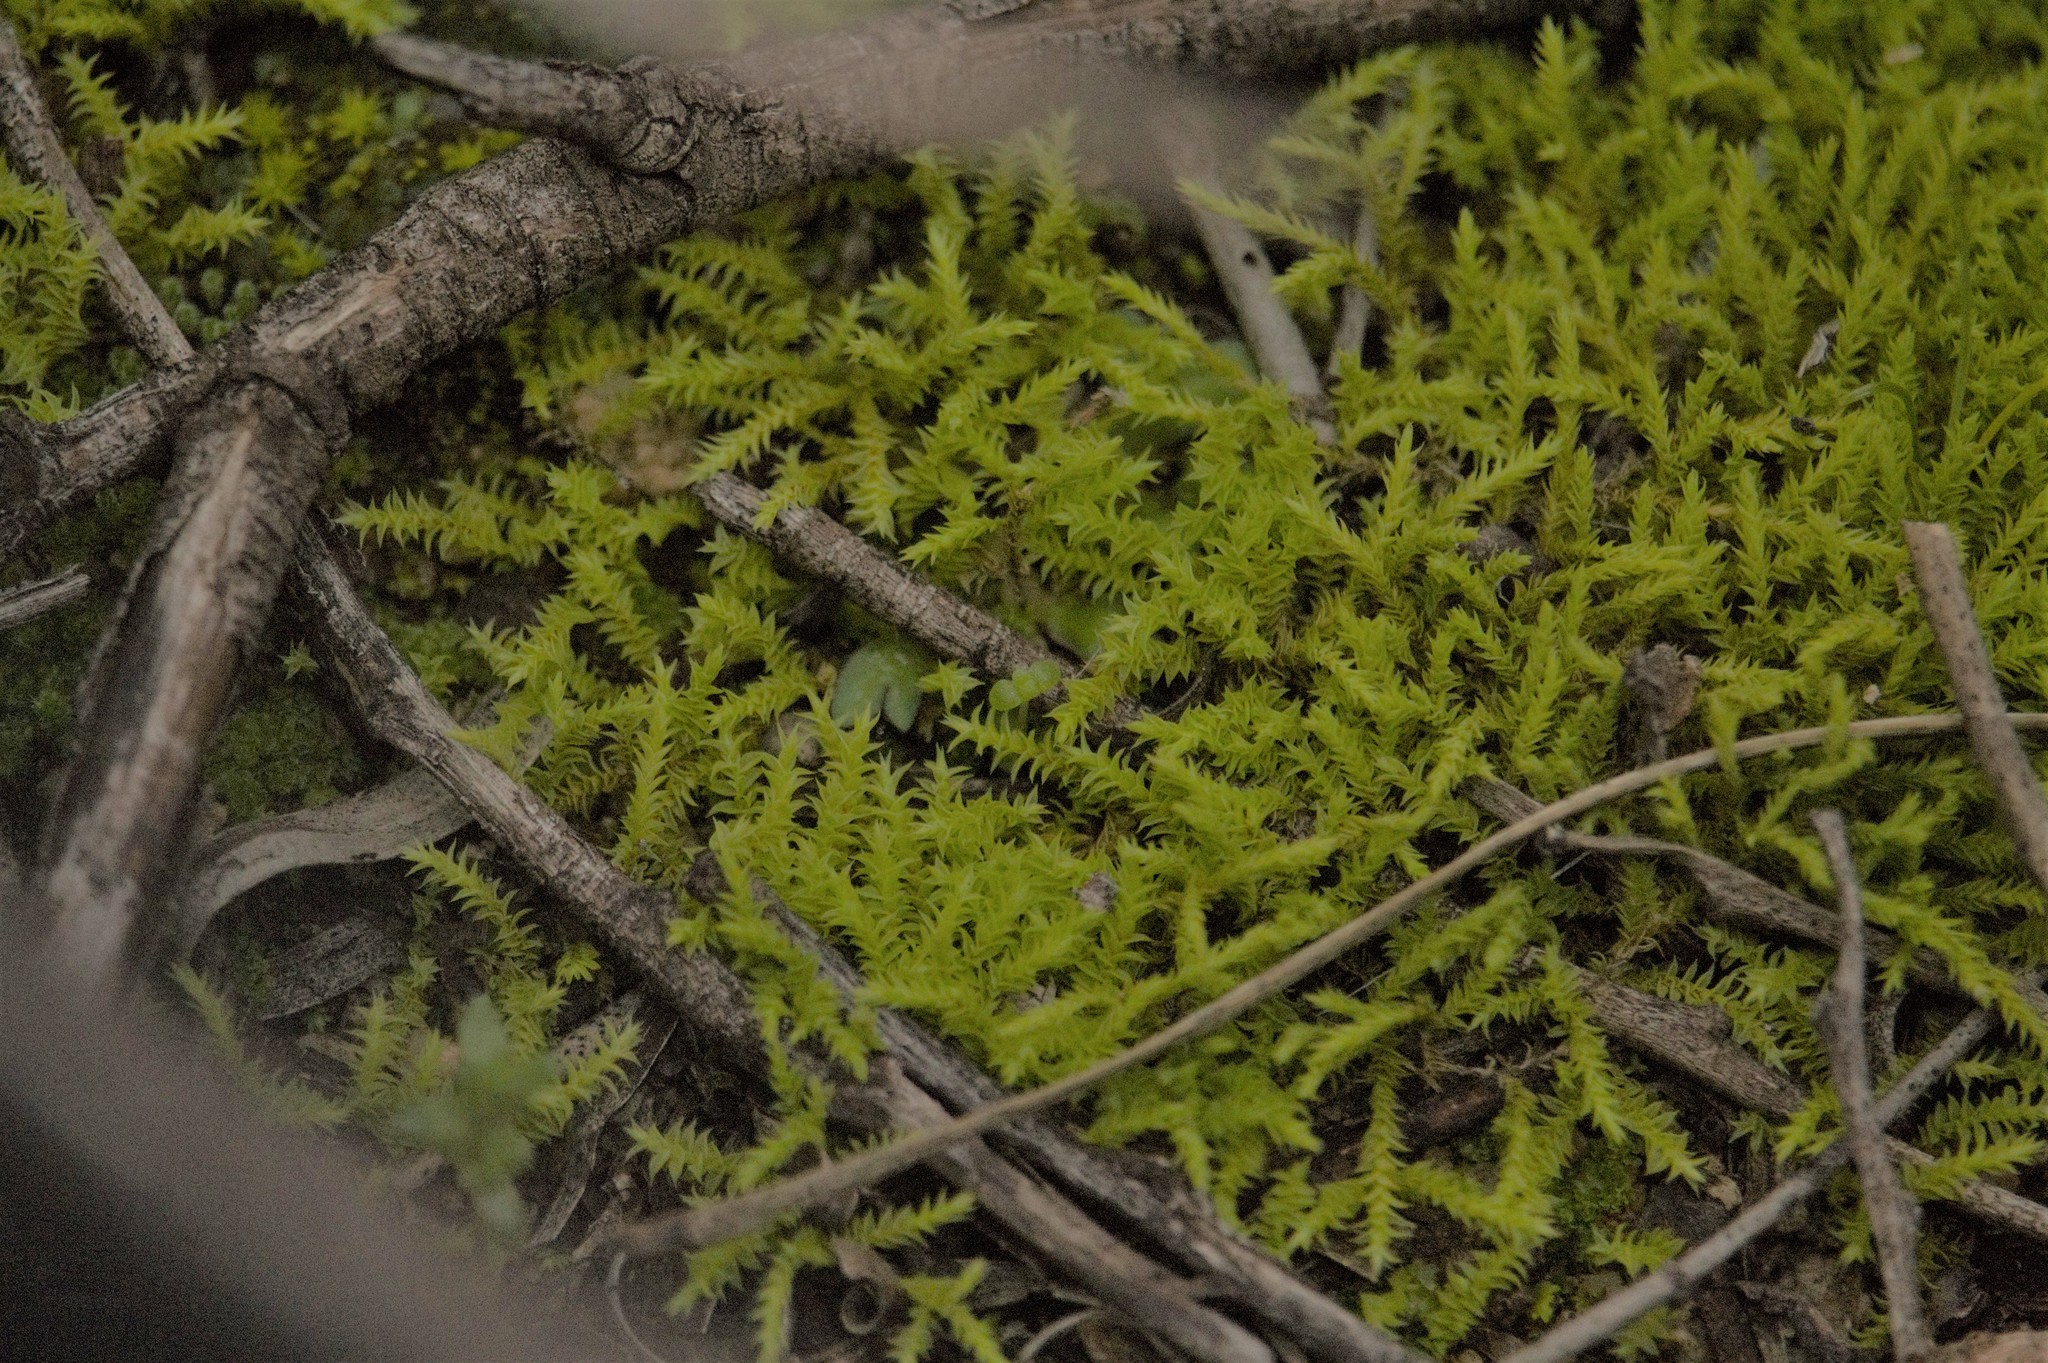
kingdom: Plantae
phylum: Bryophyta
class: Bryopsida
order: Pottiales
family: Pottiaceae
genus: Triquetrella
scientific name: Triquetrella papillata
